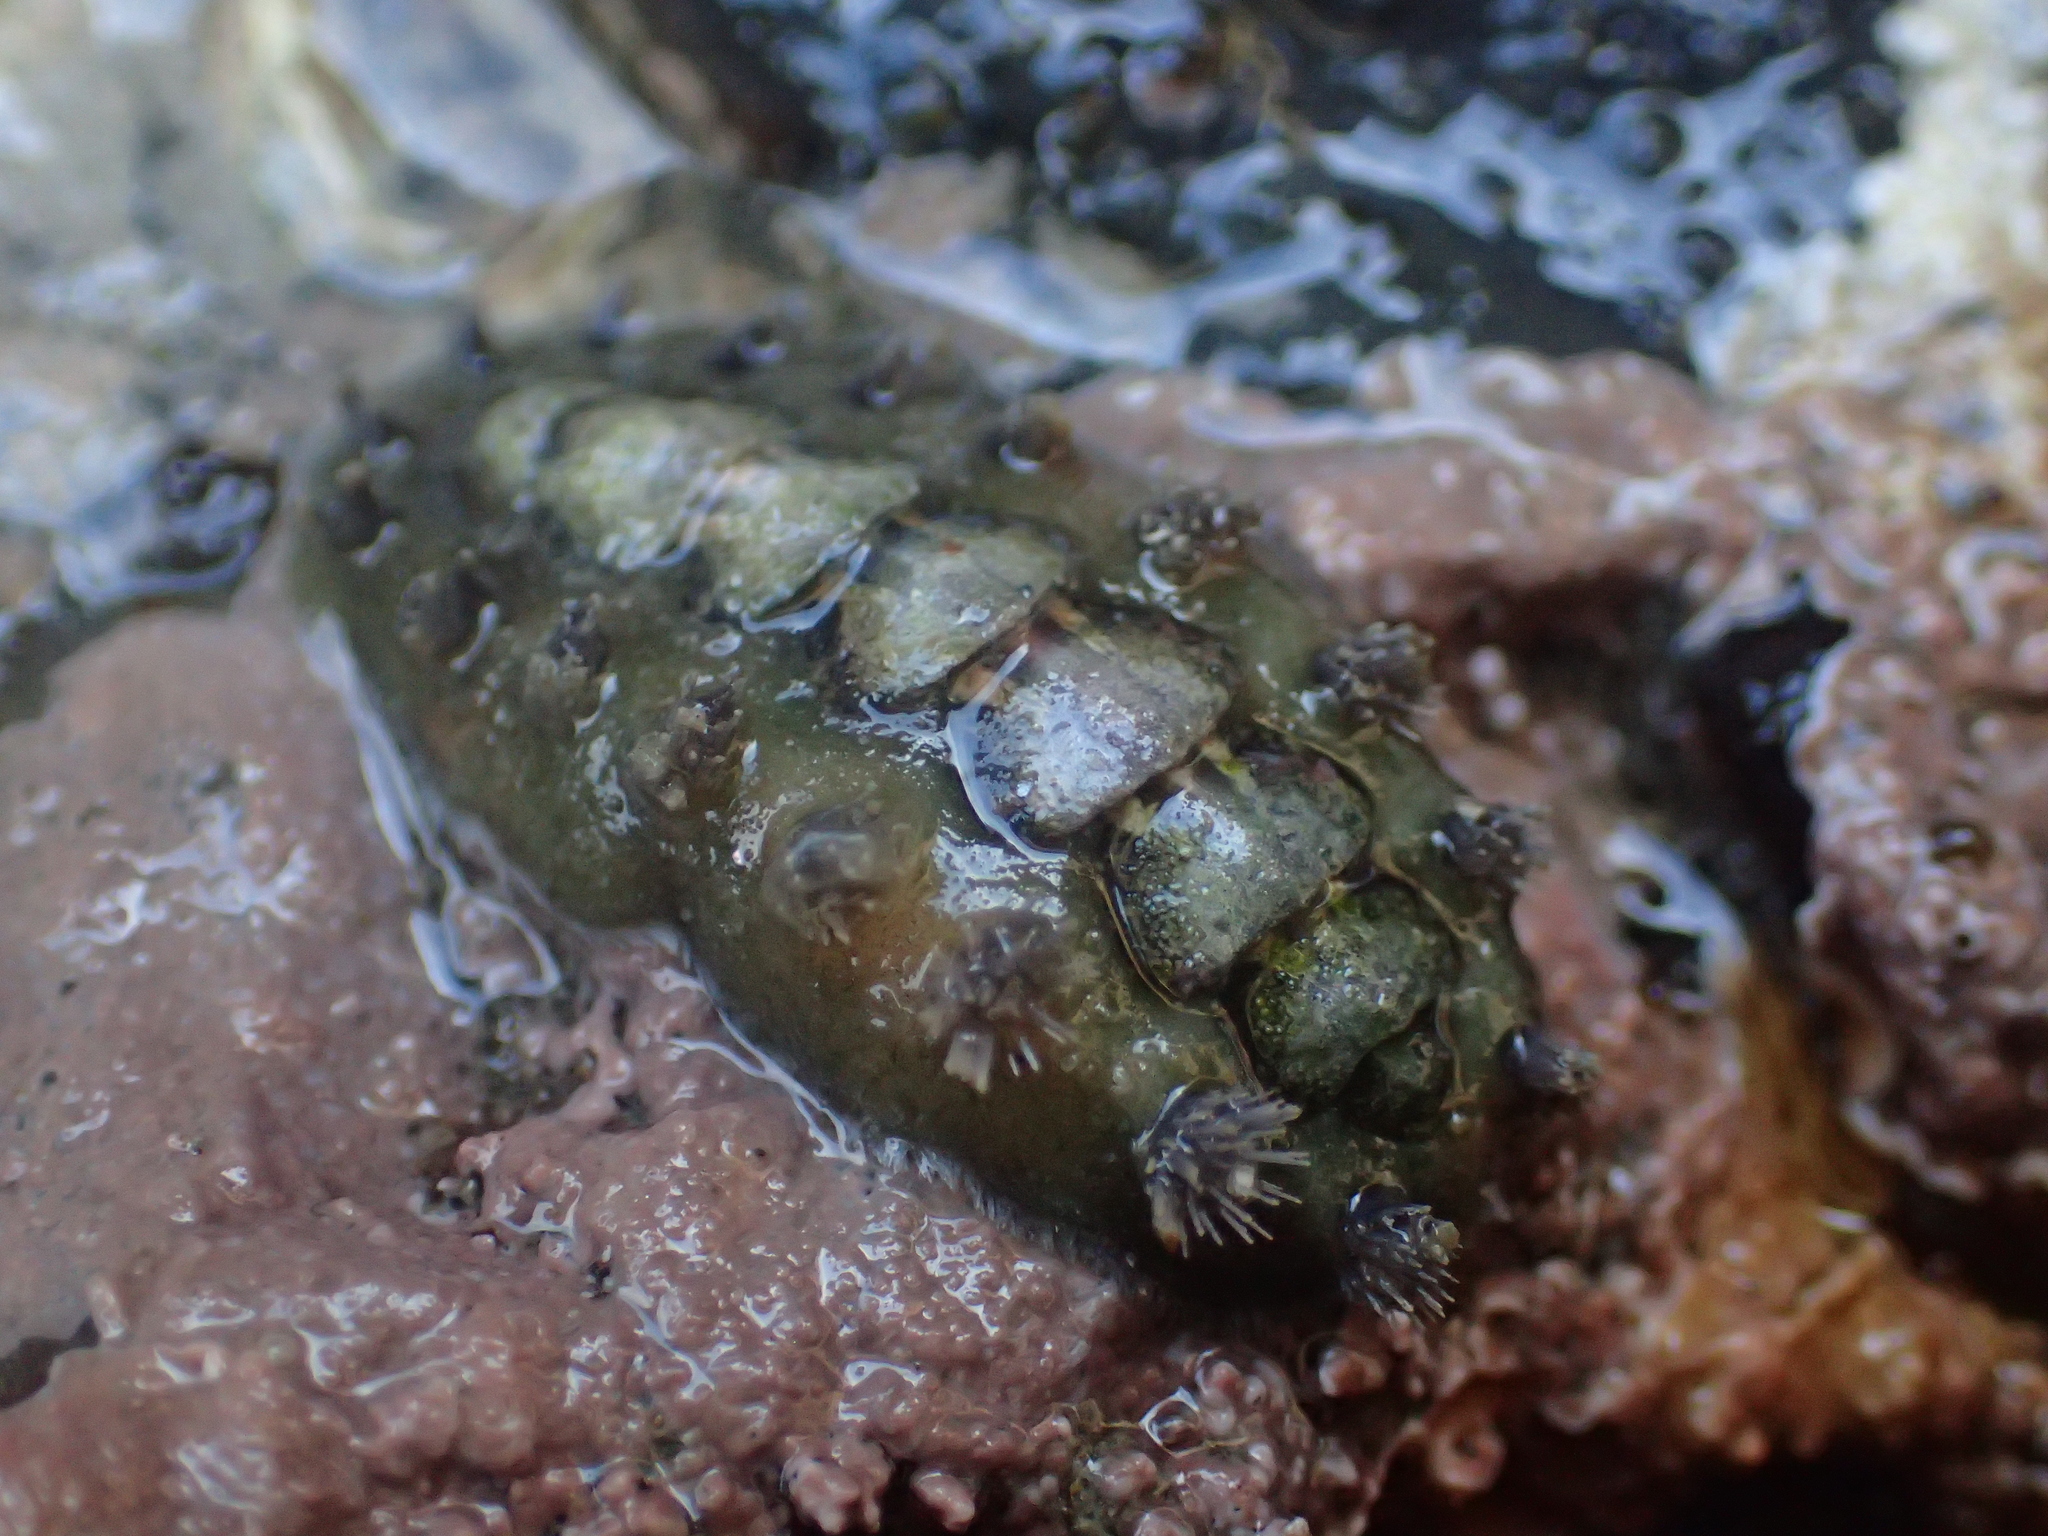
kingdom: Animalia
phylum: Mollusca
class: Polyplacophora
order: Chitonida
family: Acanthochitonidae
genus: Acanthochitona
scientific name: Acanthochitona zelandica
